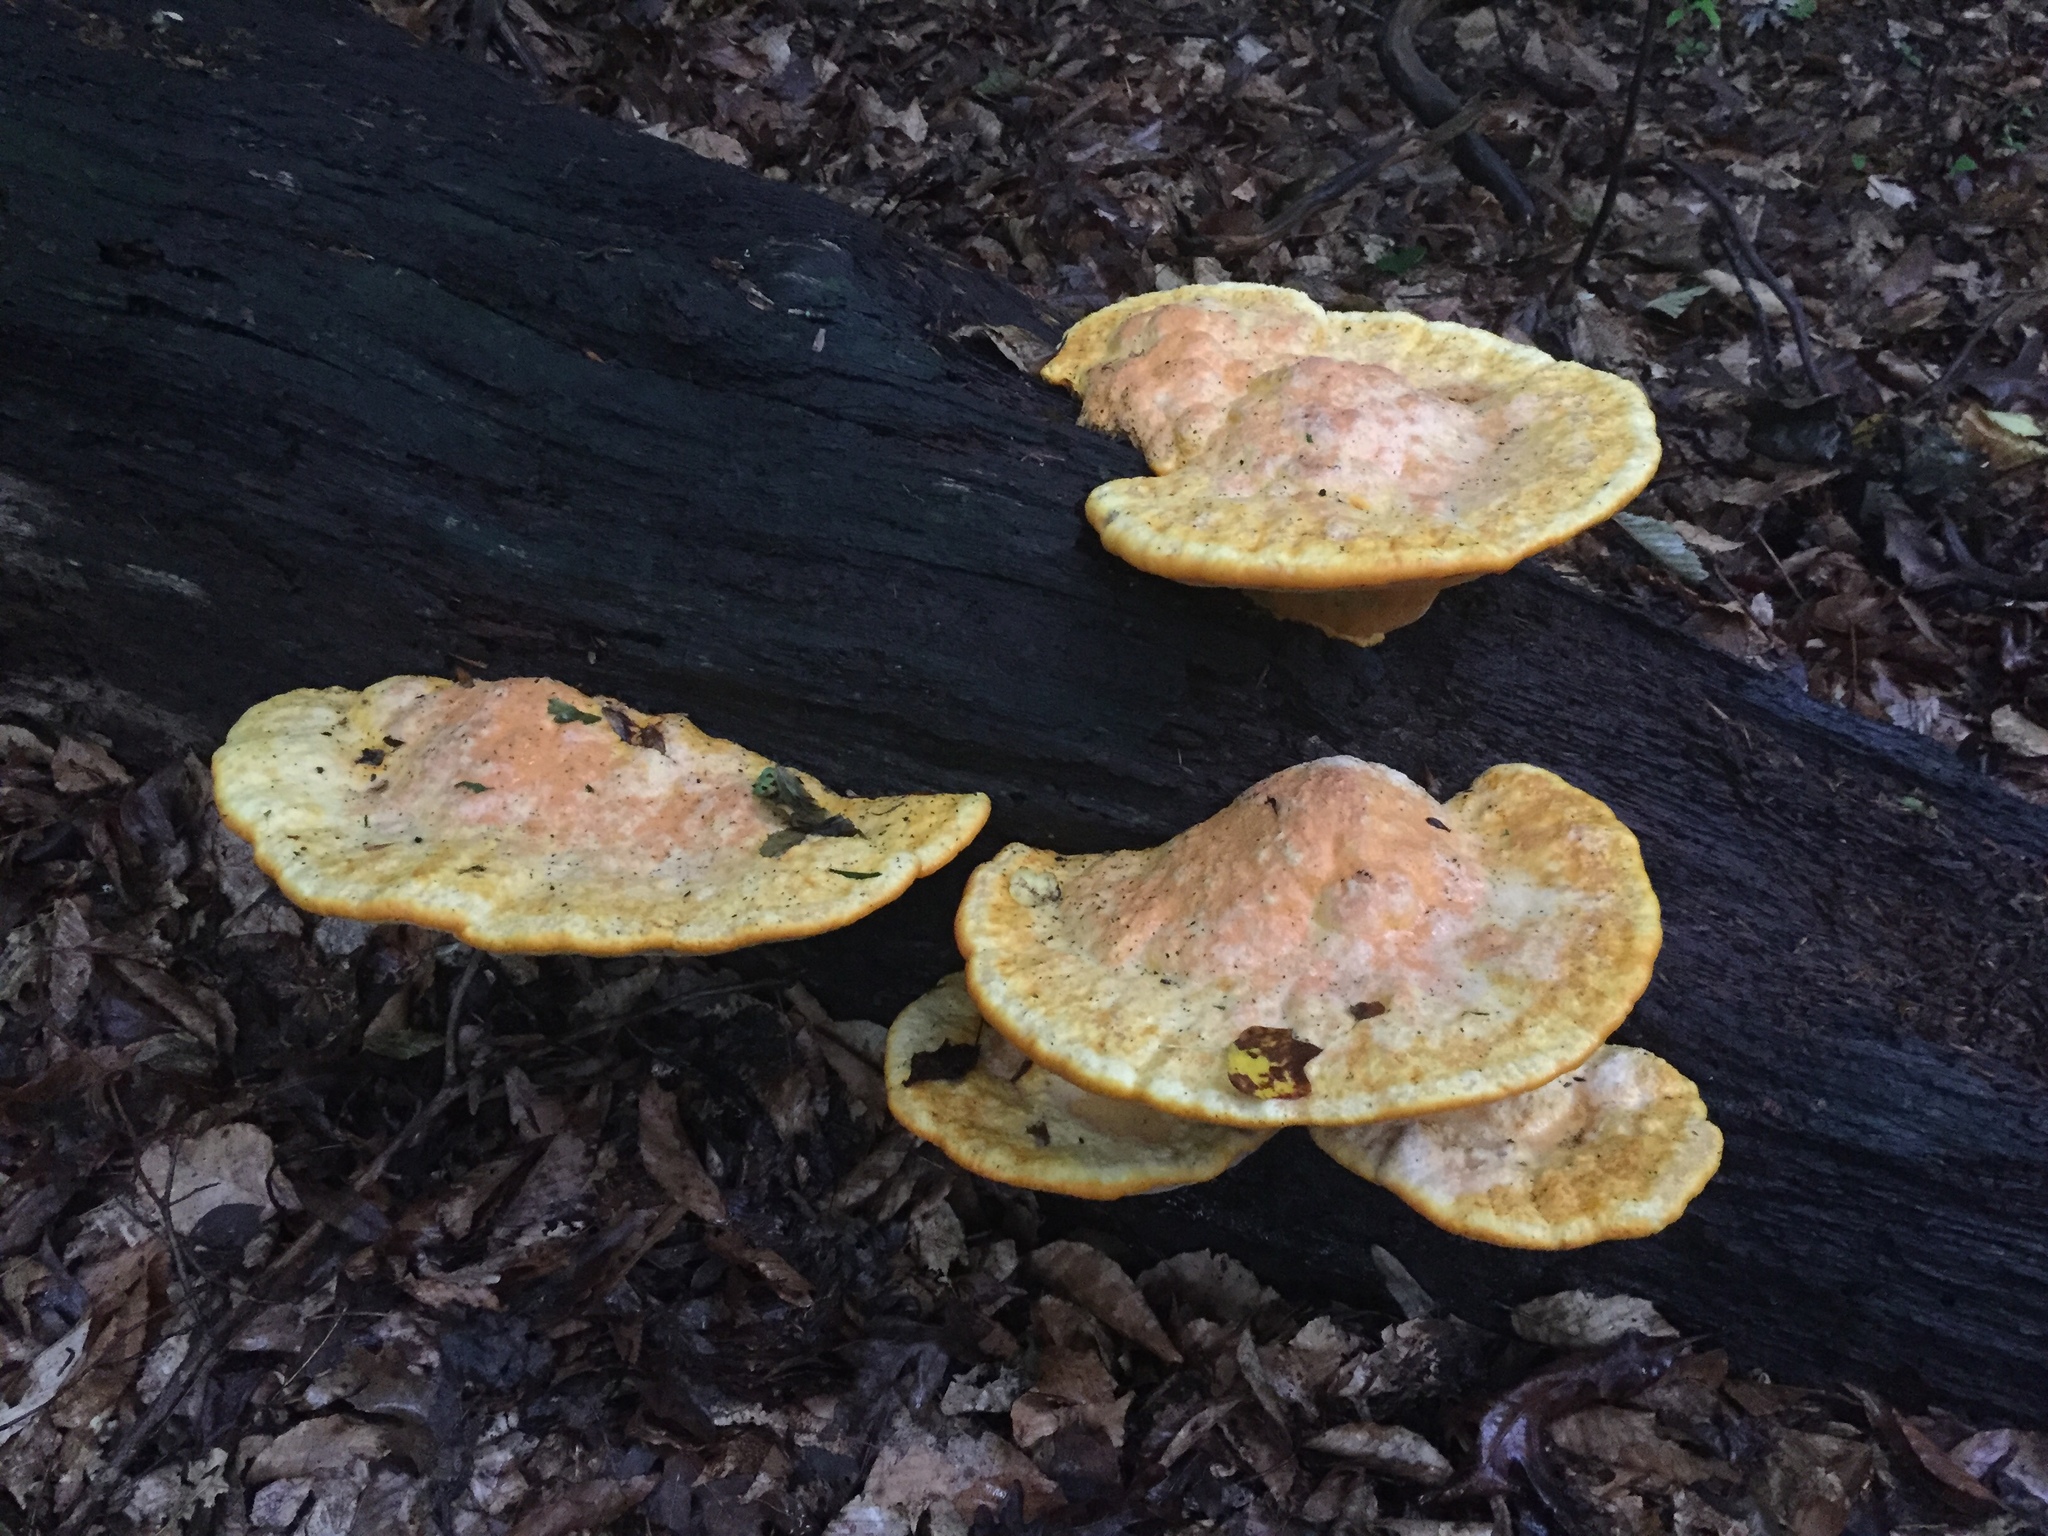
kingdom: Fungi
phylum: Basidiomycota
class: Agaricomycetes
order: Polyporales
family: Phanerochaetaceae
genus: Hapalopilus
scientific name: Hapalopilus croceus
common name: Orange polypore
